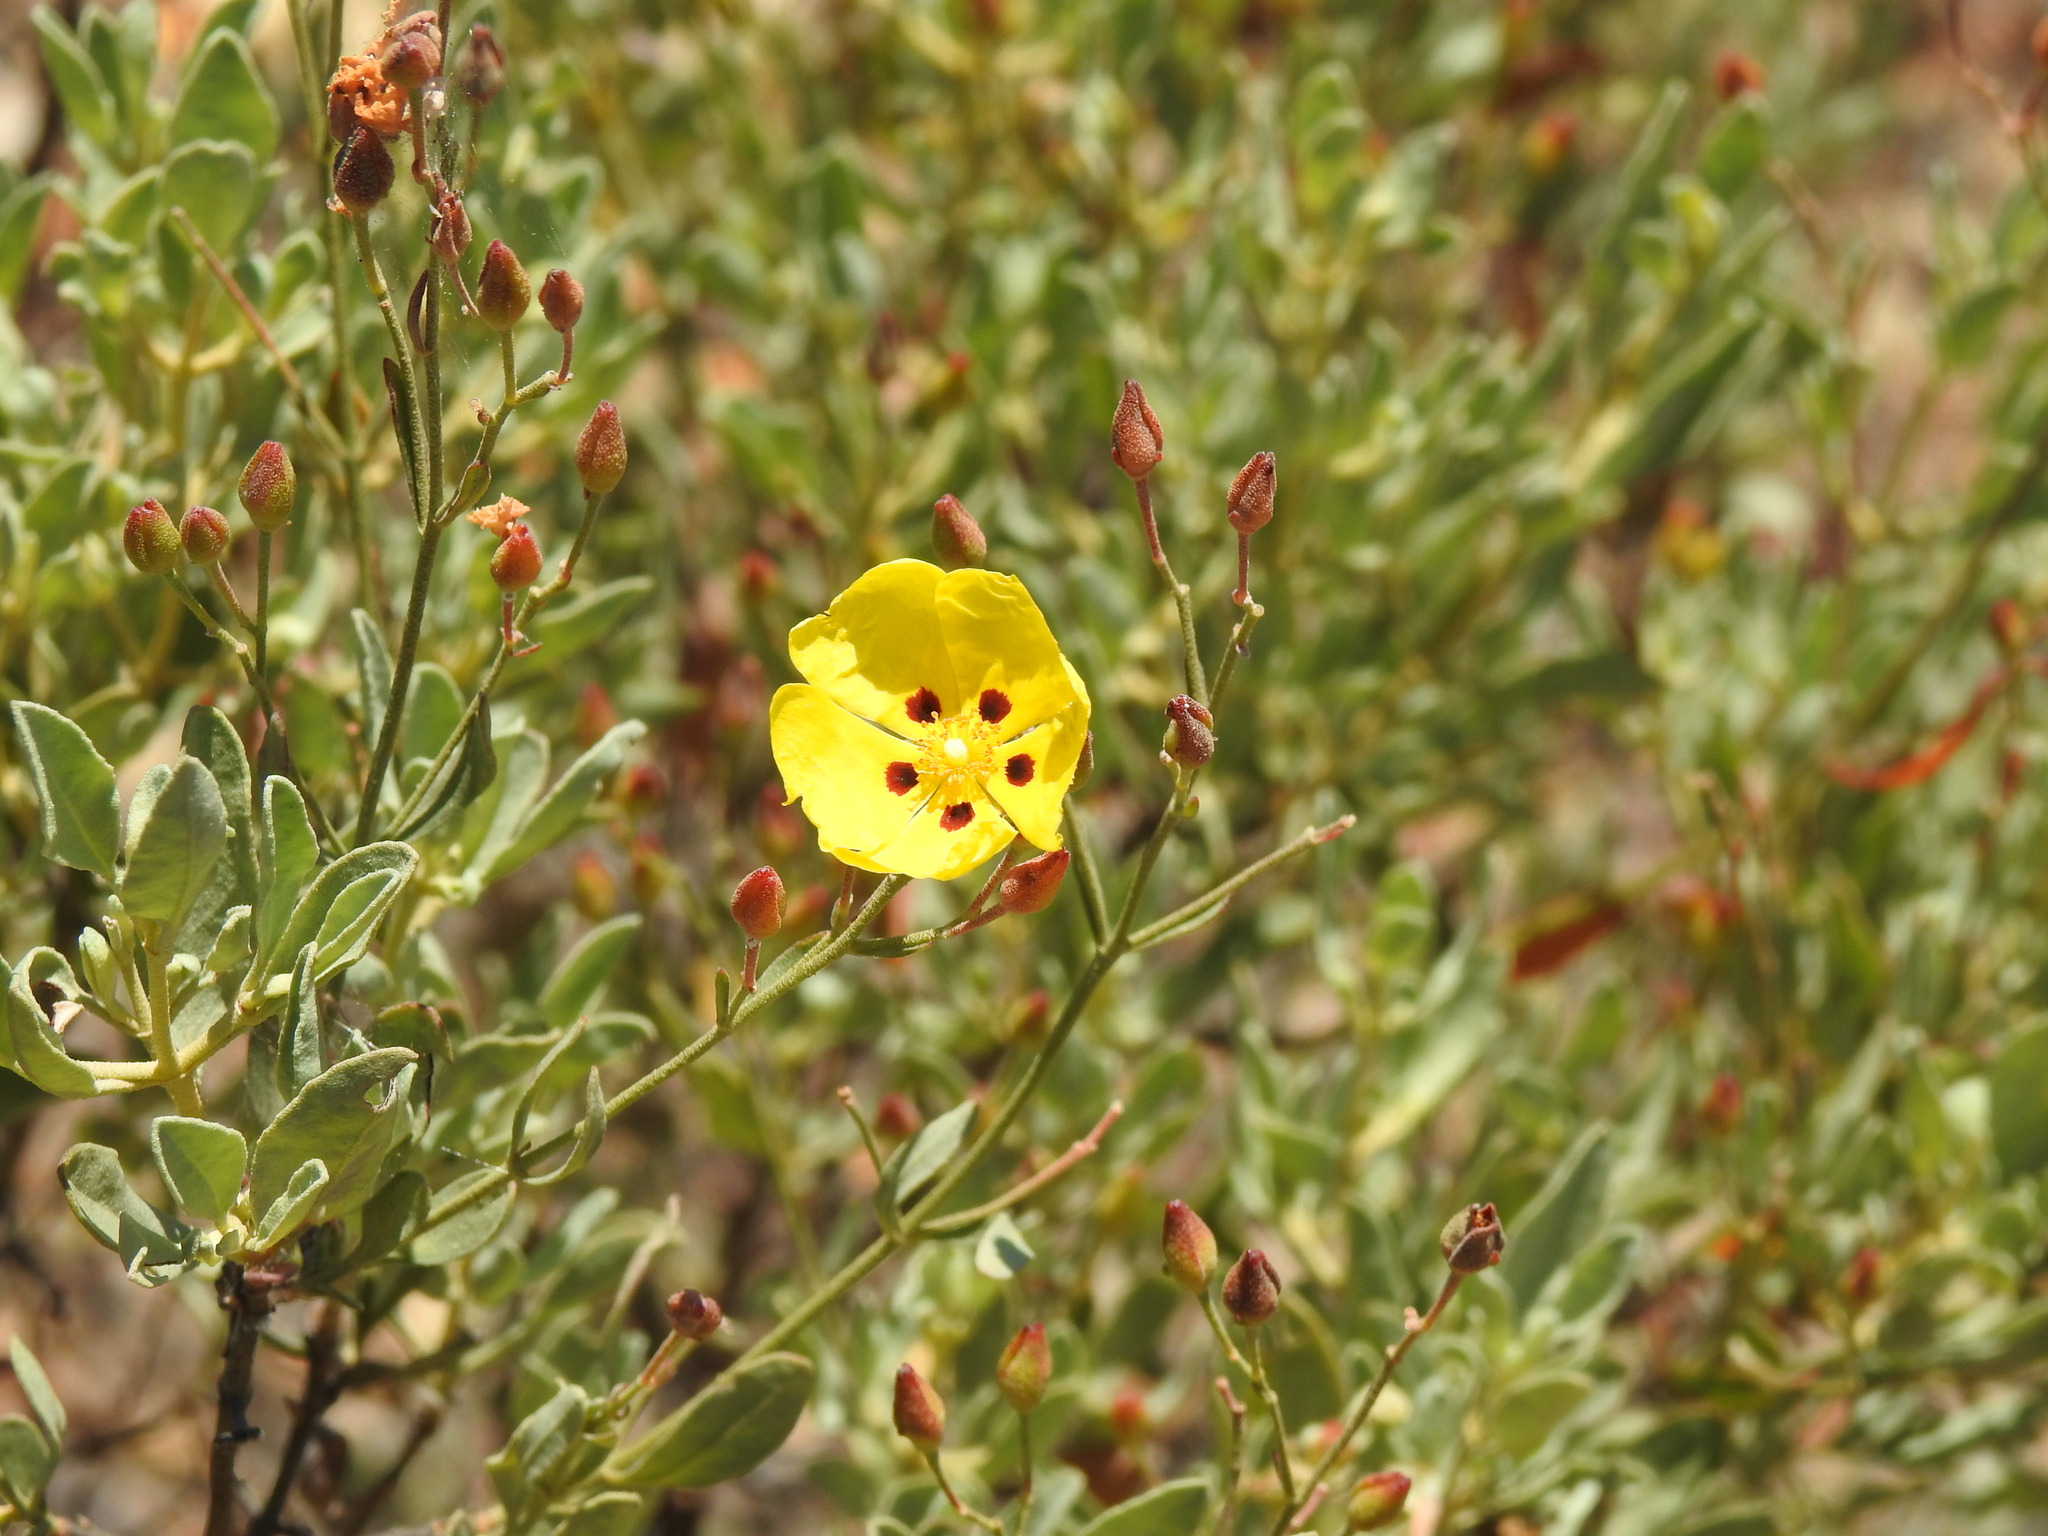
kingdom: Plantae
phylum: Tracheophyta
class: Magnoliopsida
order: Malvales
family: Cistaceae
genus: Halimium
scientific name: Halimium halimifolium
